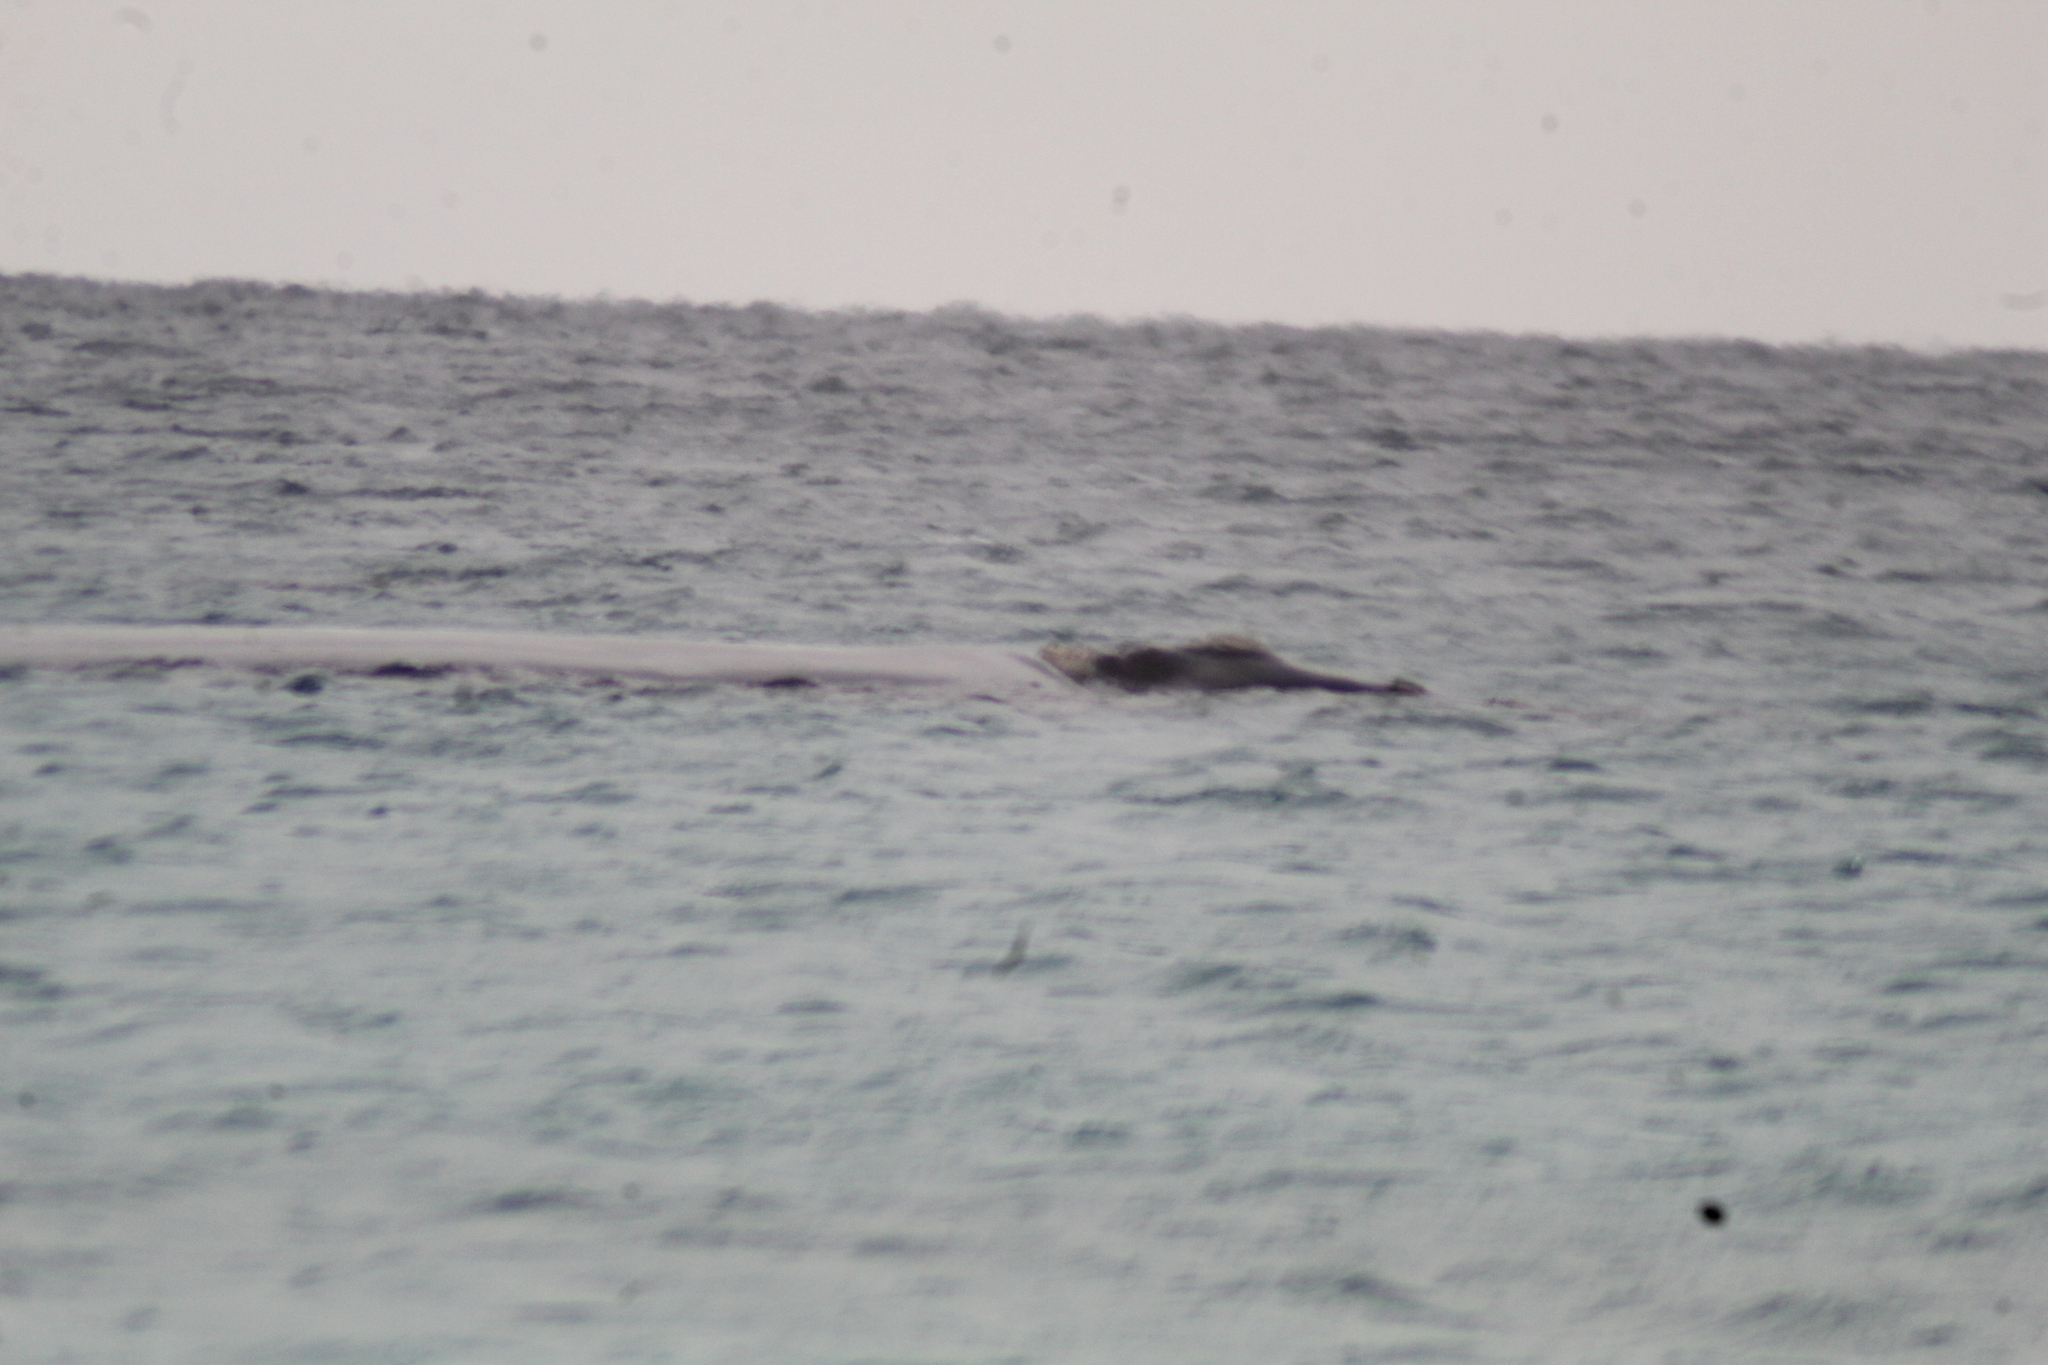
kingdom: Animalia
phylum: Chordata
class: Mammalia
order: Cetacea
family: Balaenidae
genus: Eubalaena
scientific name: Eubalaena australis
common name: Southern right whale
